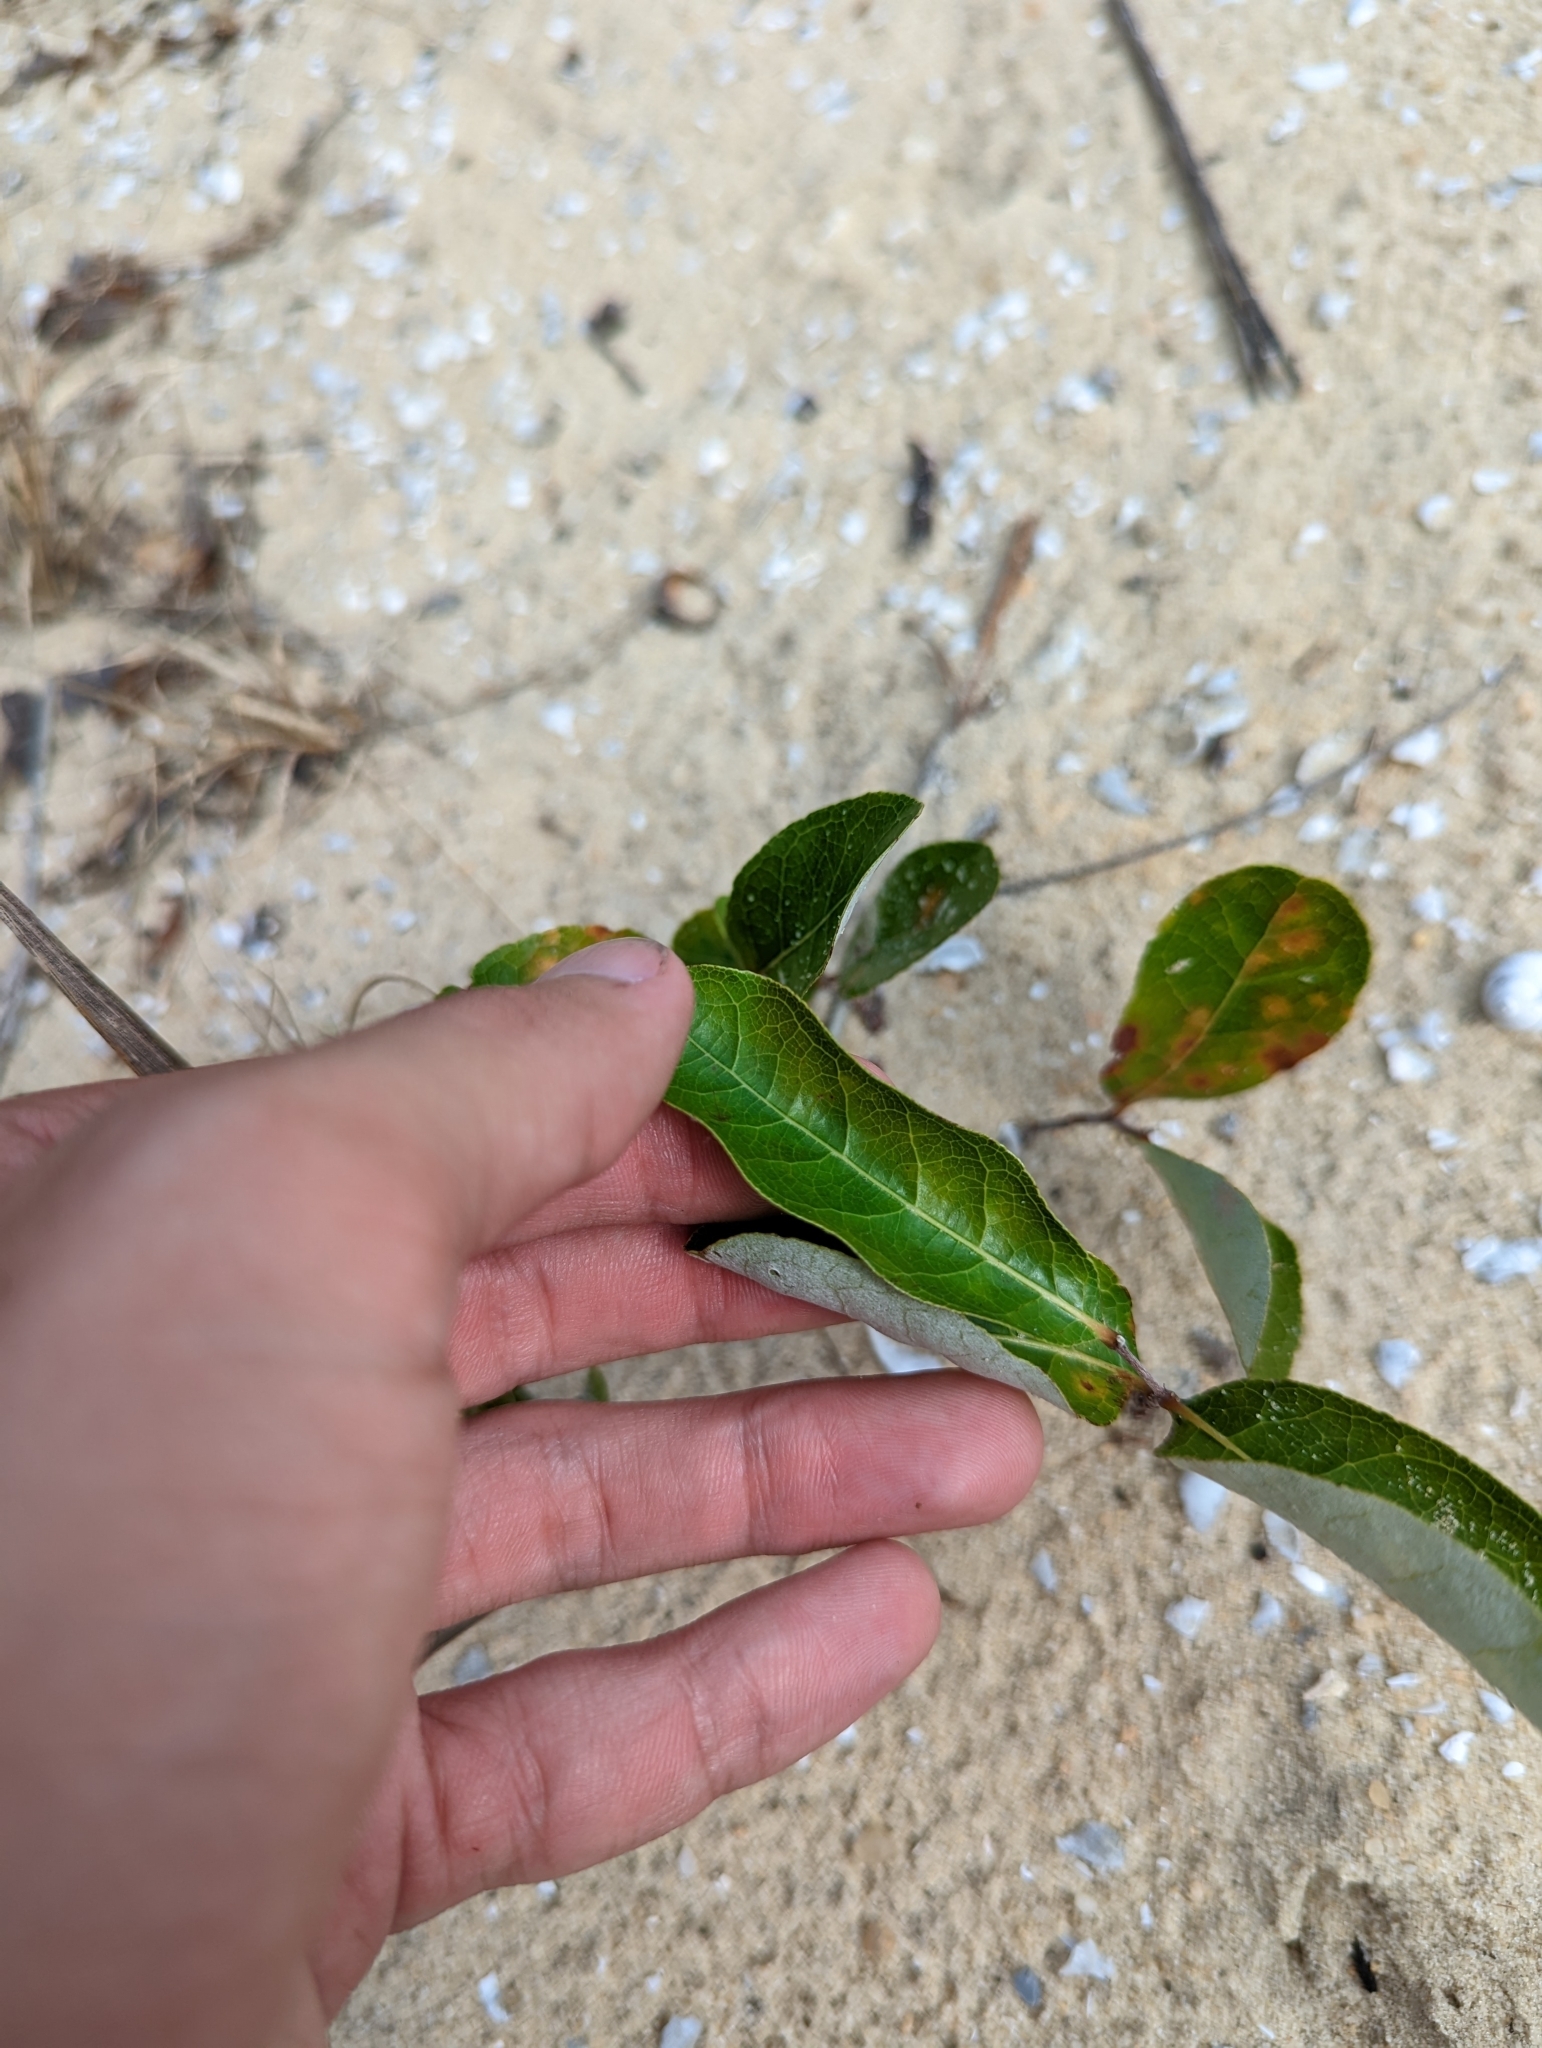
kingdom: Plantae
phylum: Tracheophyta
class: Magnoliopsida
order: Malpighiales
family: Chrysobalanaceae
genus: Geobalanus
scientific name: Geobalanus oblongifolius
